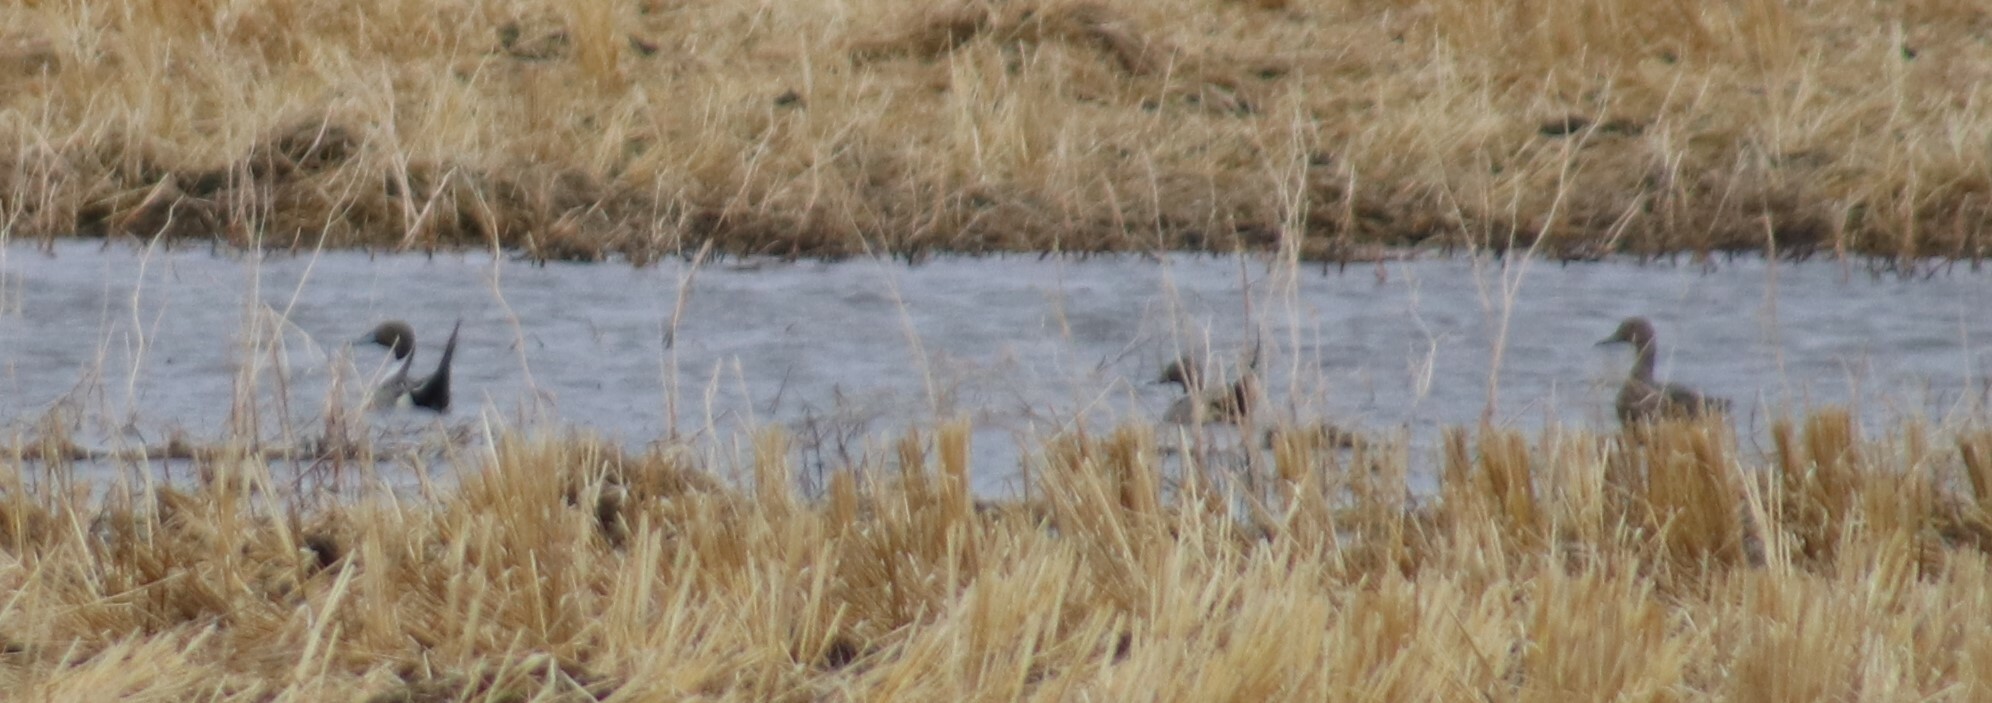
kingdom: Animalia
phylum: Chordata
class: Aves
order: Anseriformes
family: Anatidae
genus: Anas
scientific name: Anas acuta
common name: Northern pintail
